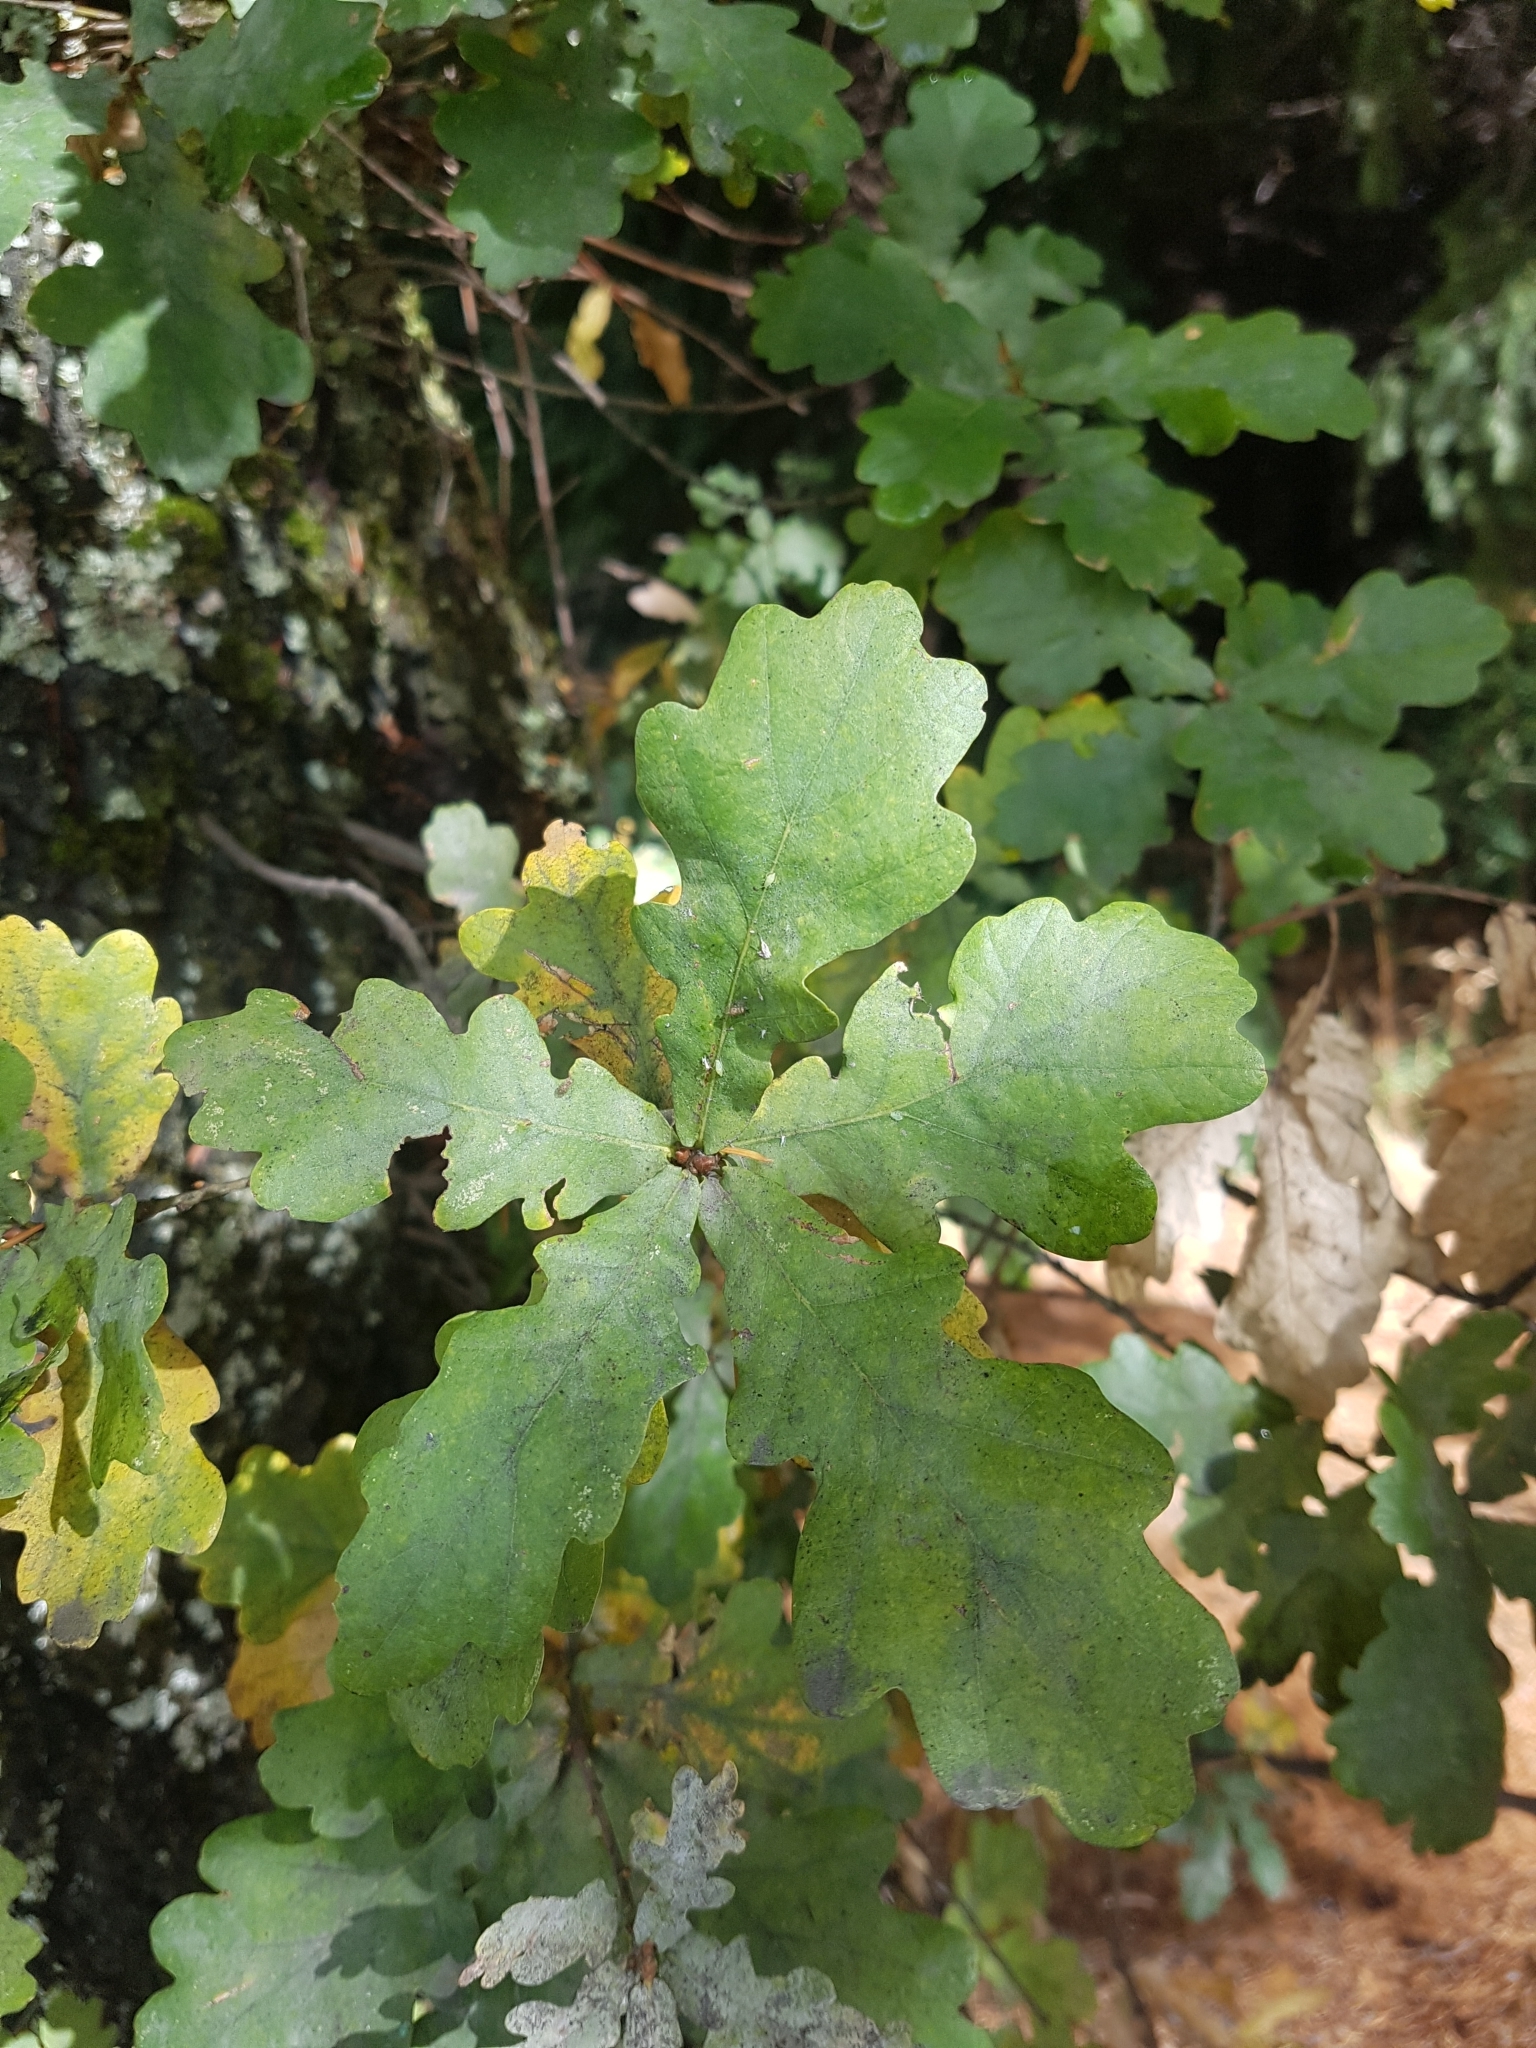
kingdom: Plantae
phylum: Tracheophyta
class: Magnoliopsida
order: Fagales
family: Fagaceae
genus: Quercus
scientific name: Quercus robur
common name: Pedunculate oak
